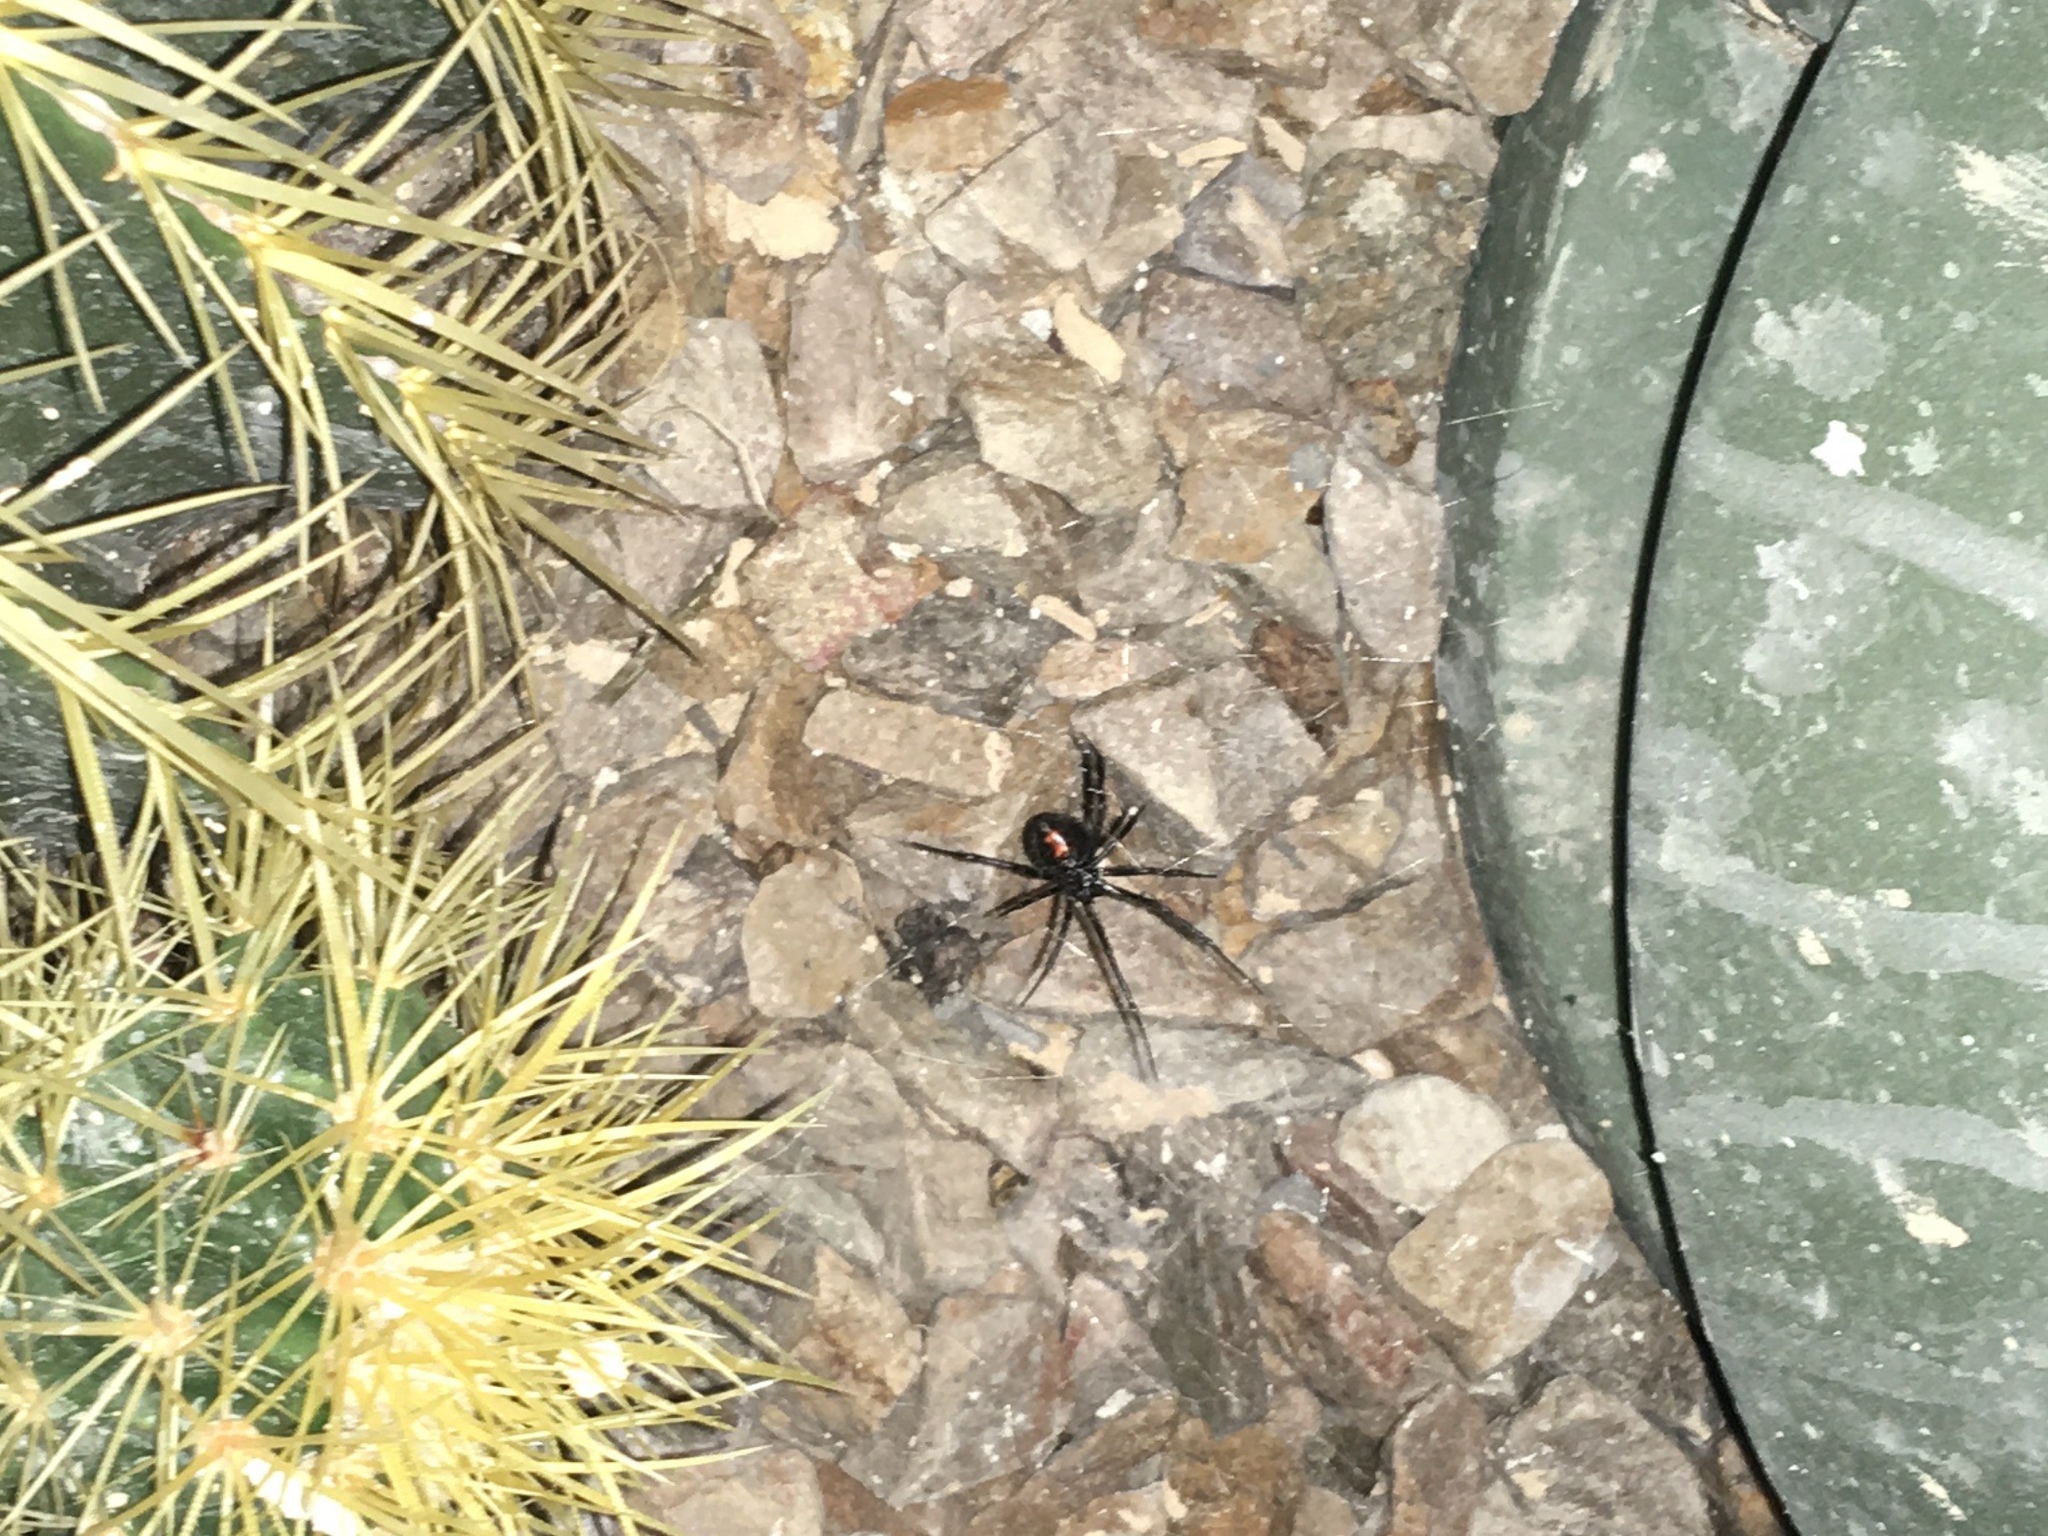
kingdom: Animalia
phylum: Arthropoda
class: Arachnida
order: Araneae
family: Theridiidae
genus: Latrodectus
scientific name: Latrodectus hesperus
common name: Western black widow
